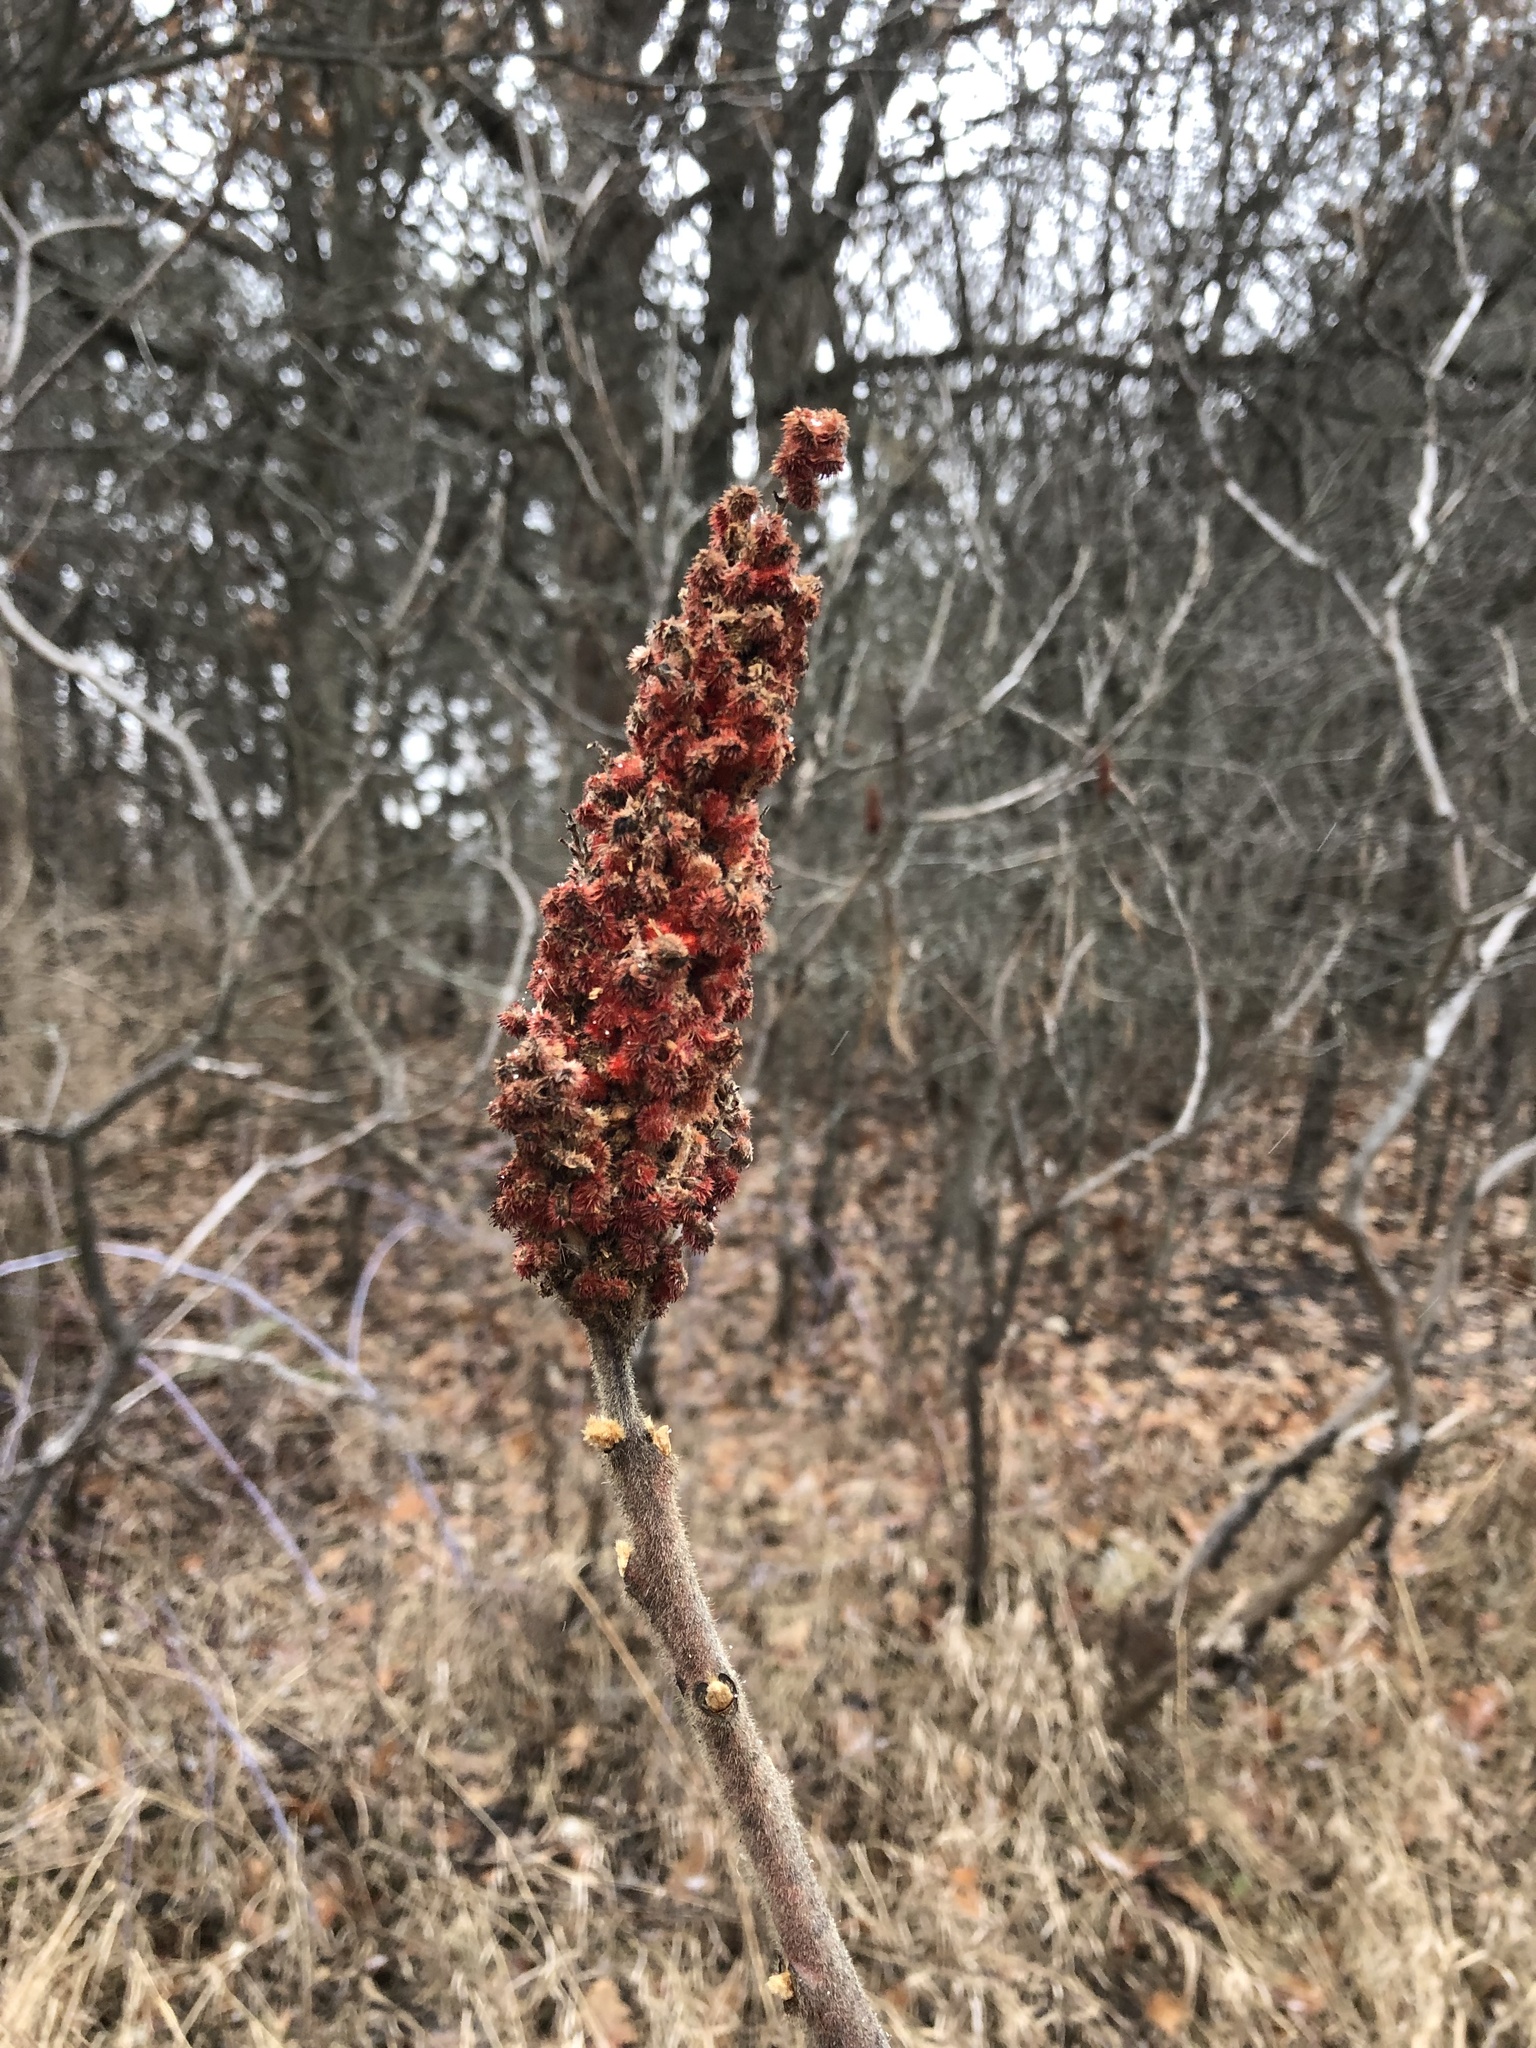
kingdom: Plantae
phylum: Tracheophyta
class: Magnoliopsida
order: Sapindales
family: Anacardiaceae
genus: Rhus
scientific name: Rhus typhina
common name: Staghorn sumac
